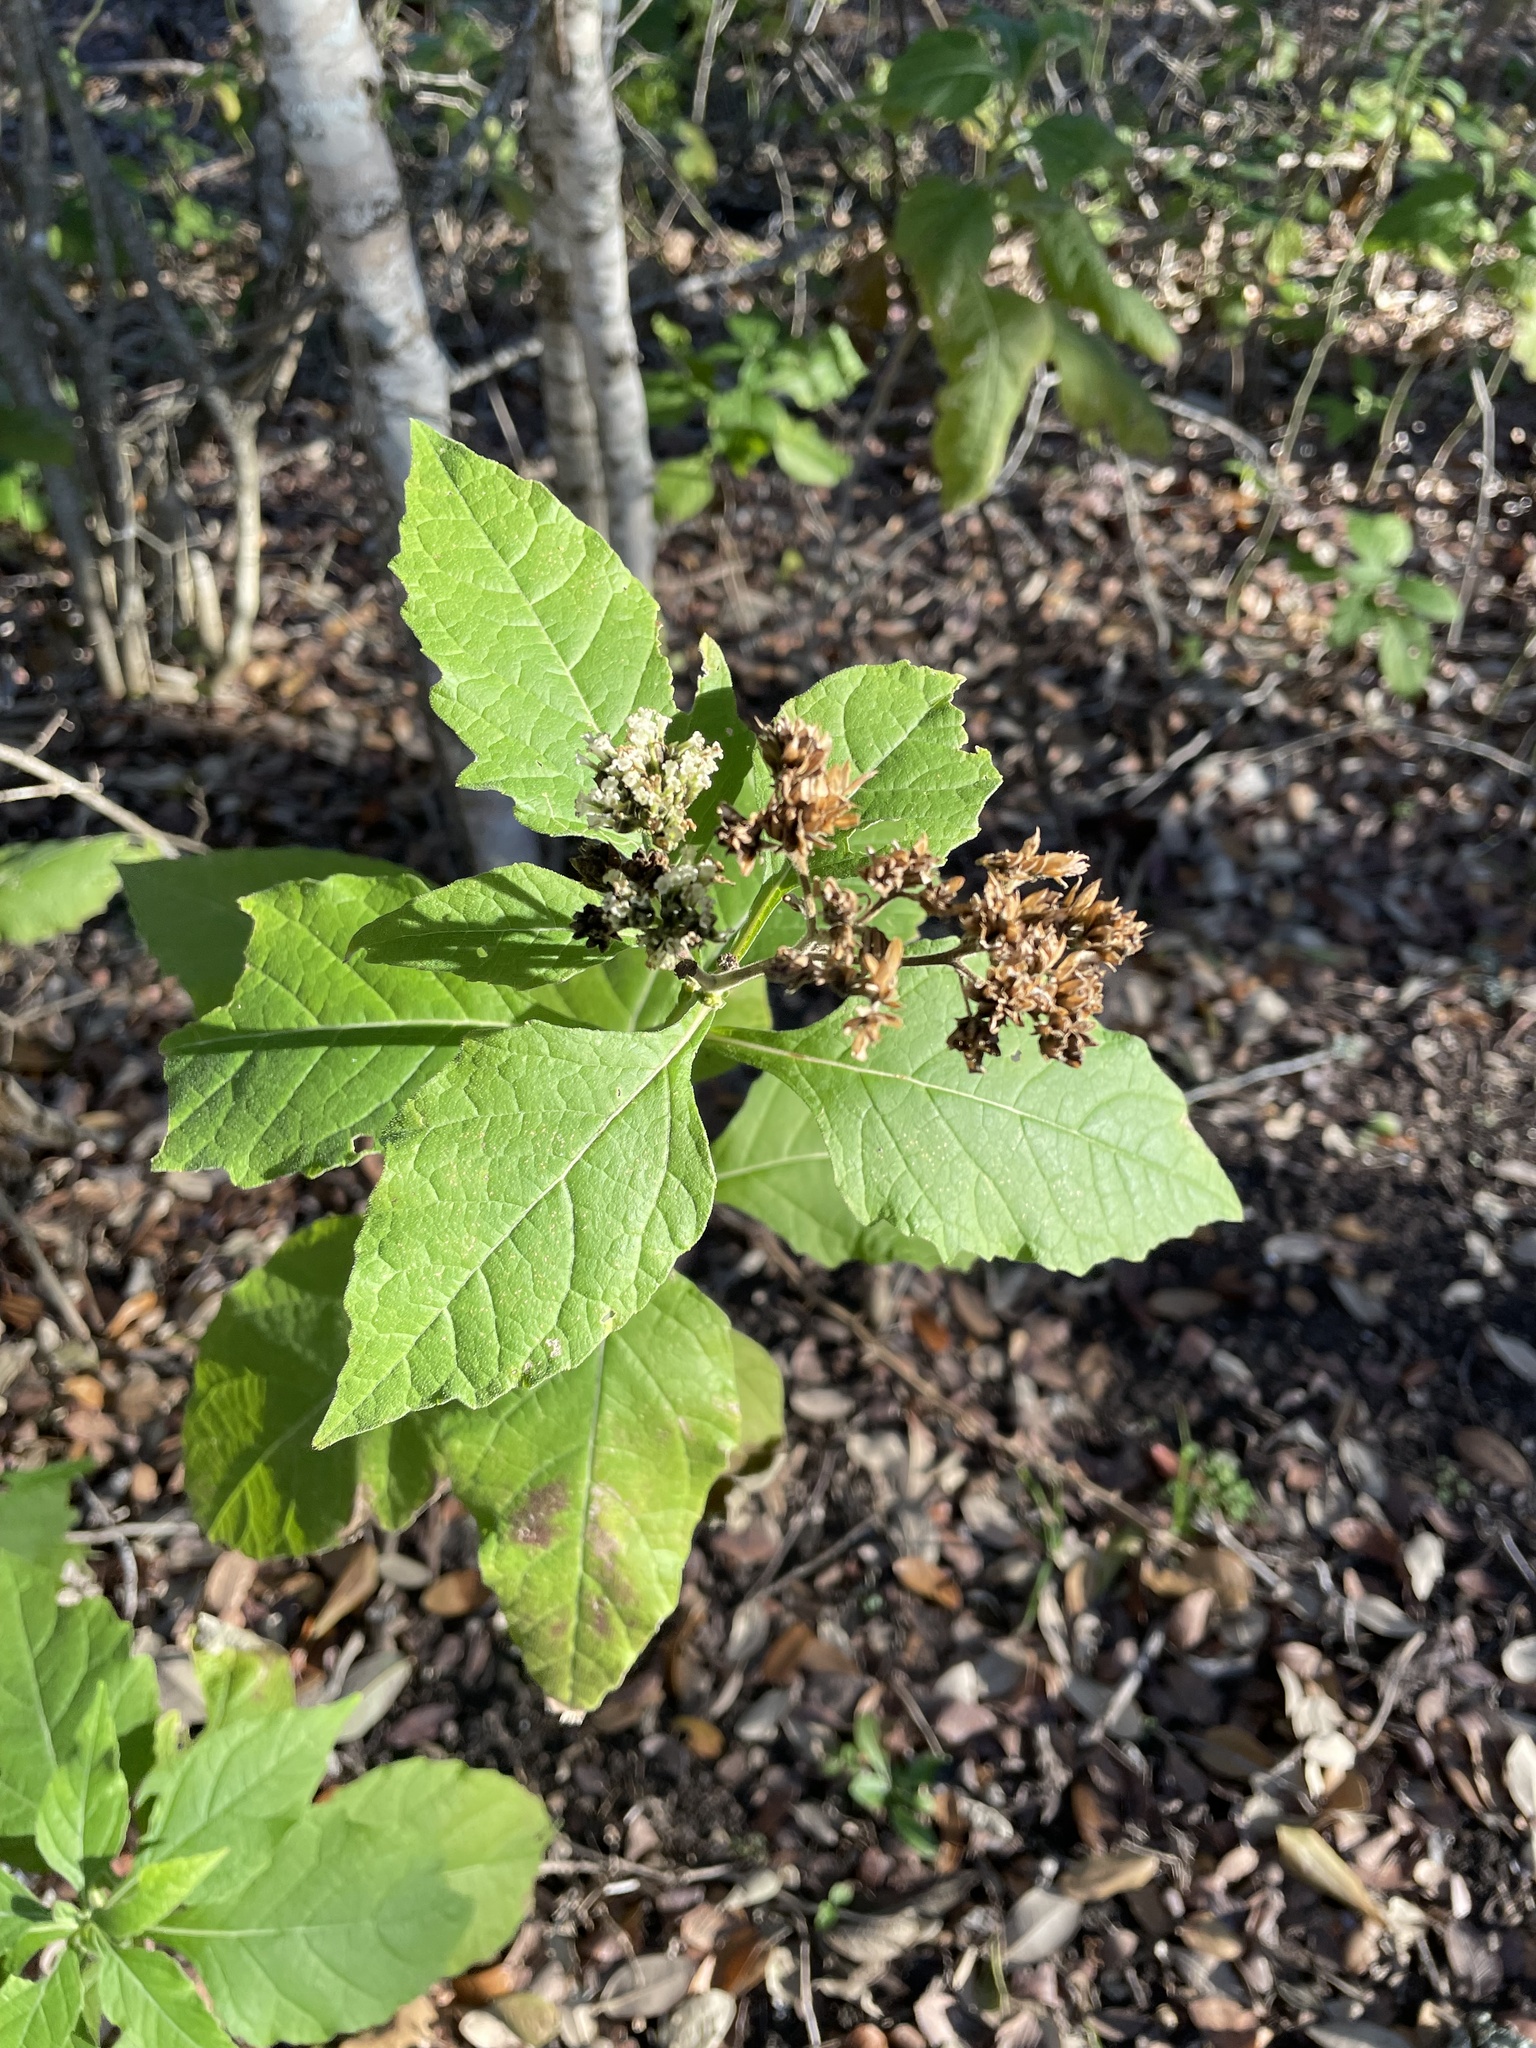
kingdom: Plantae
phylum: Tracheophyta
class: Magnoliopsida
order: Asterales
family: Asteraceae
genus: Verbesina
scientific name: Verbesina virginica
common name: Frostweed
